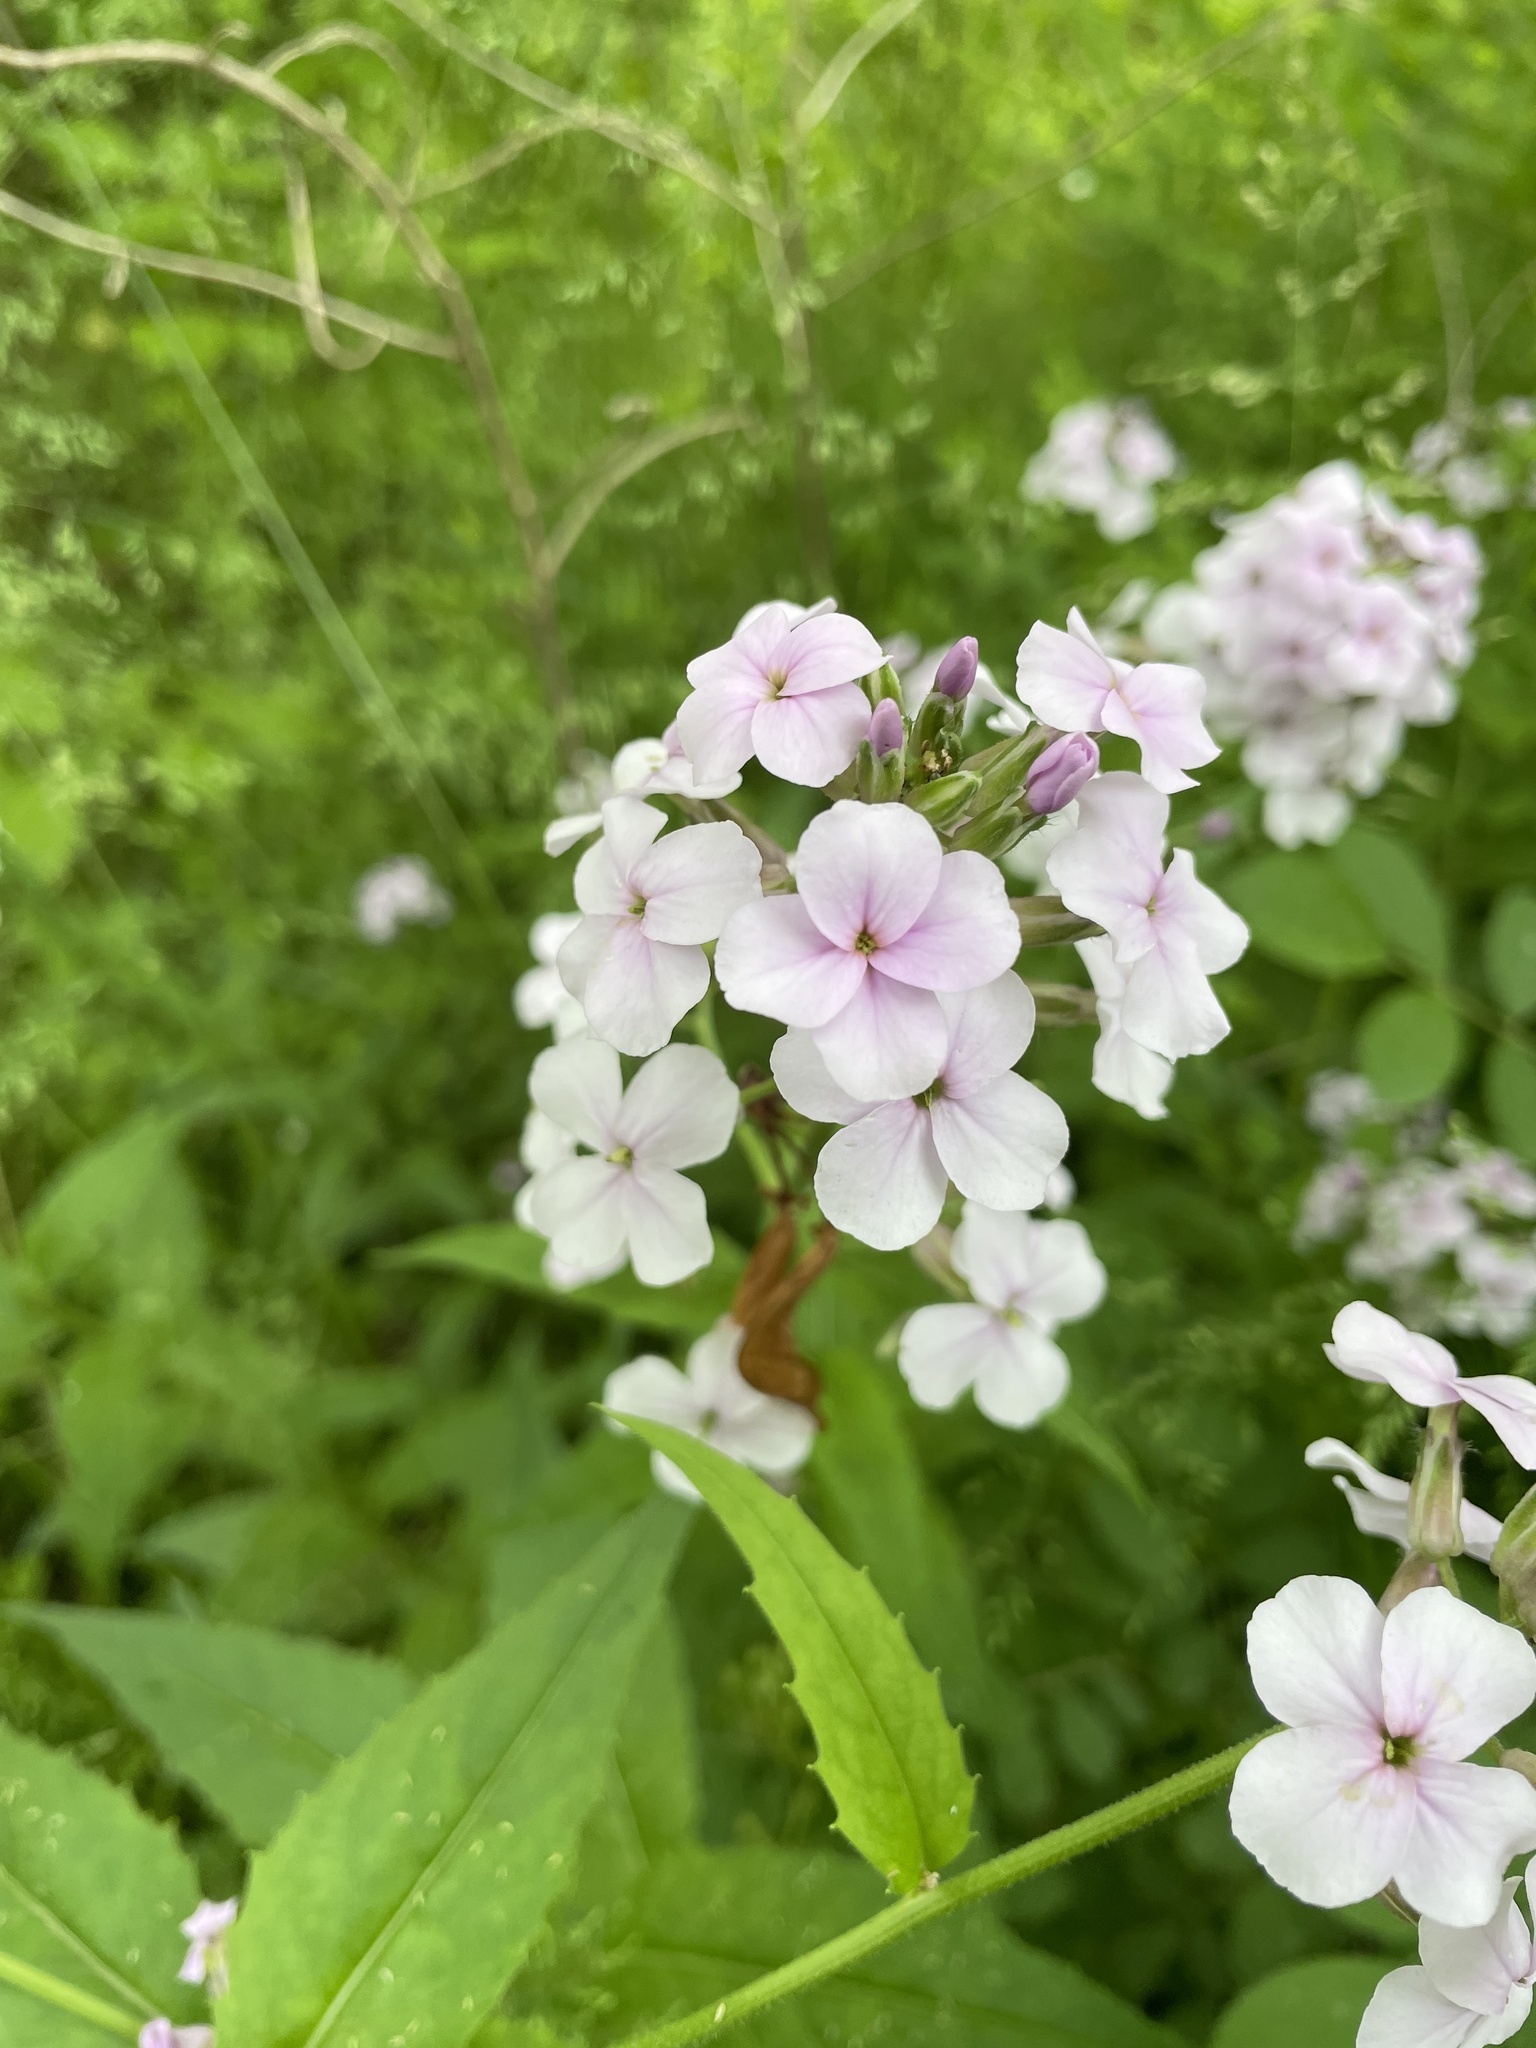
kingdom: Plantae
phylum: Tracheophyta
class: Magnoliopsida
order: Brassicales
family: Brassicaceae
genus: Hesperis
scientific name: Hesperis matronalis
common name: Dame's-violet
